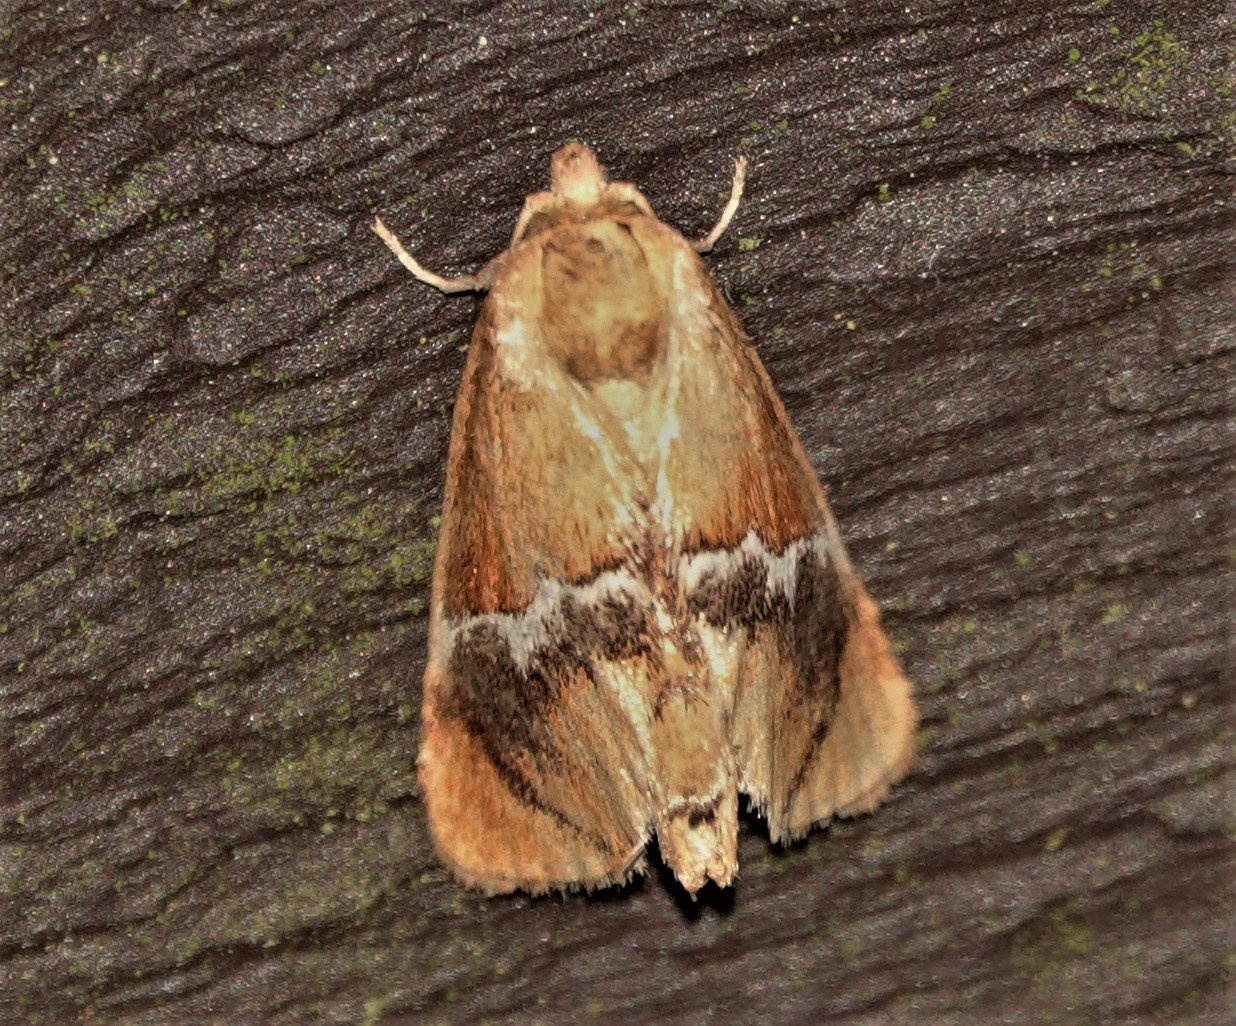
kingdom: Animalia
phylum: Arthropoda
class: Insecta
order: Lepidoptera
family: Limacodidae
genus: Lithacodes
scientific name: Lithacodes fasciola
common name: Yellow-shouldered slug moth
